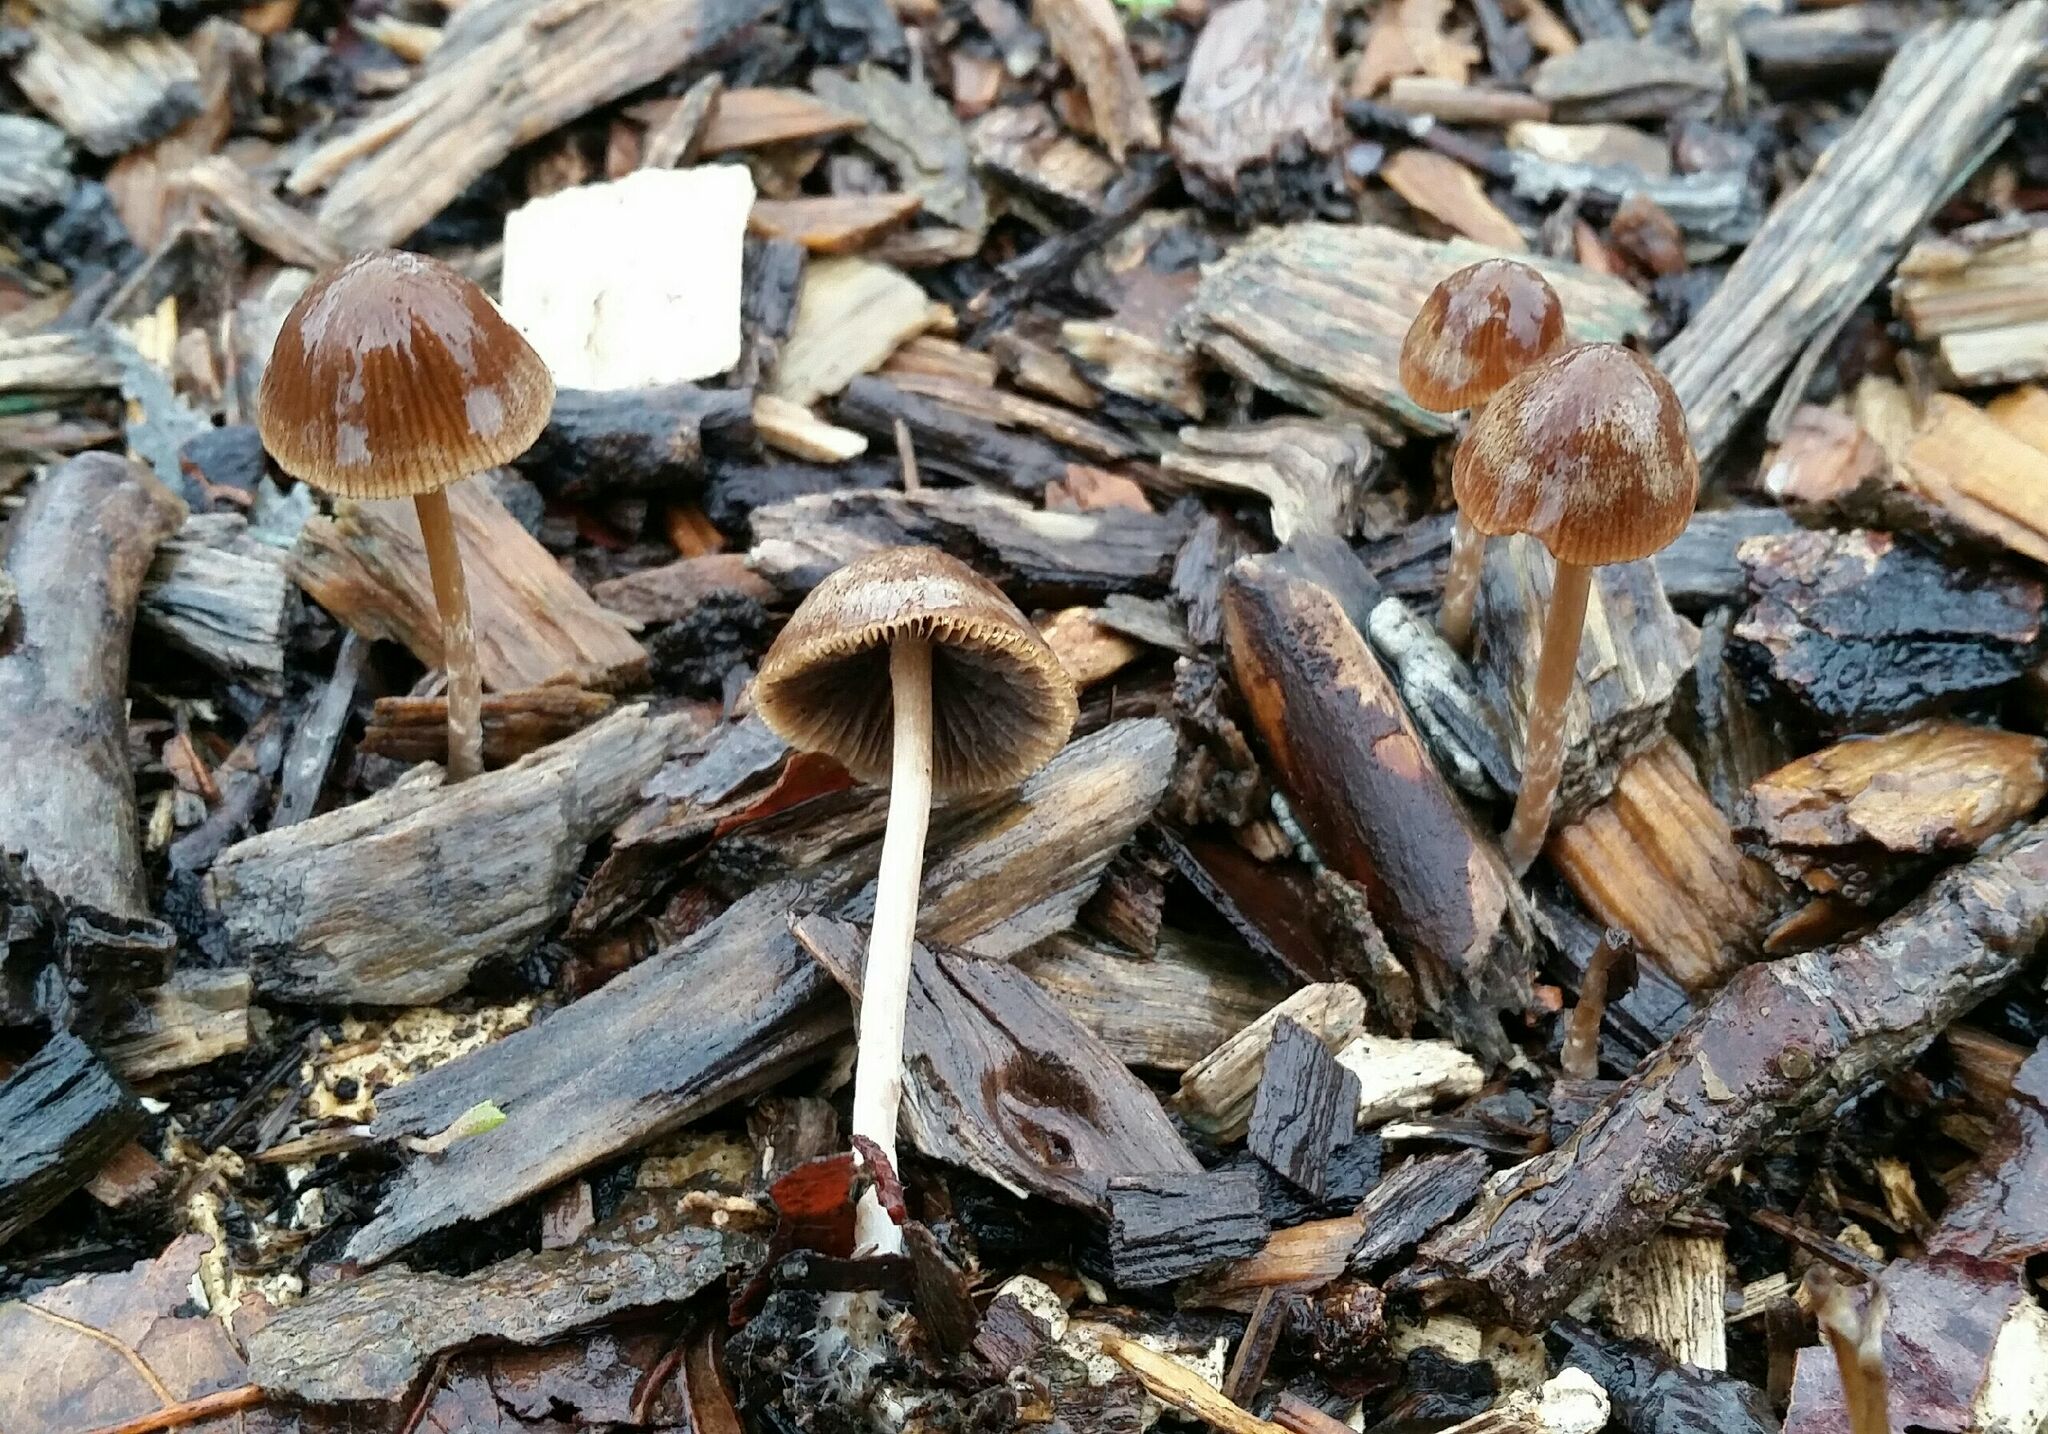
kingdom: Fungi
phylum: Basidiomycota
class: Agaricomycetes
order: Agaricales
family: Psathyrellaceae
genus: Psathyrella
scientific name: Psathyrella corrugis
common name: Red edge brittlestem
